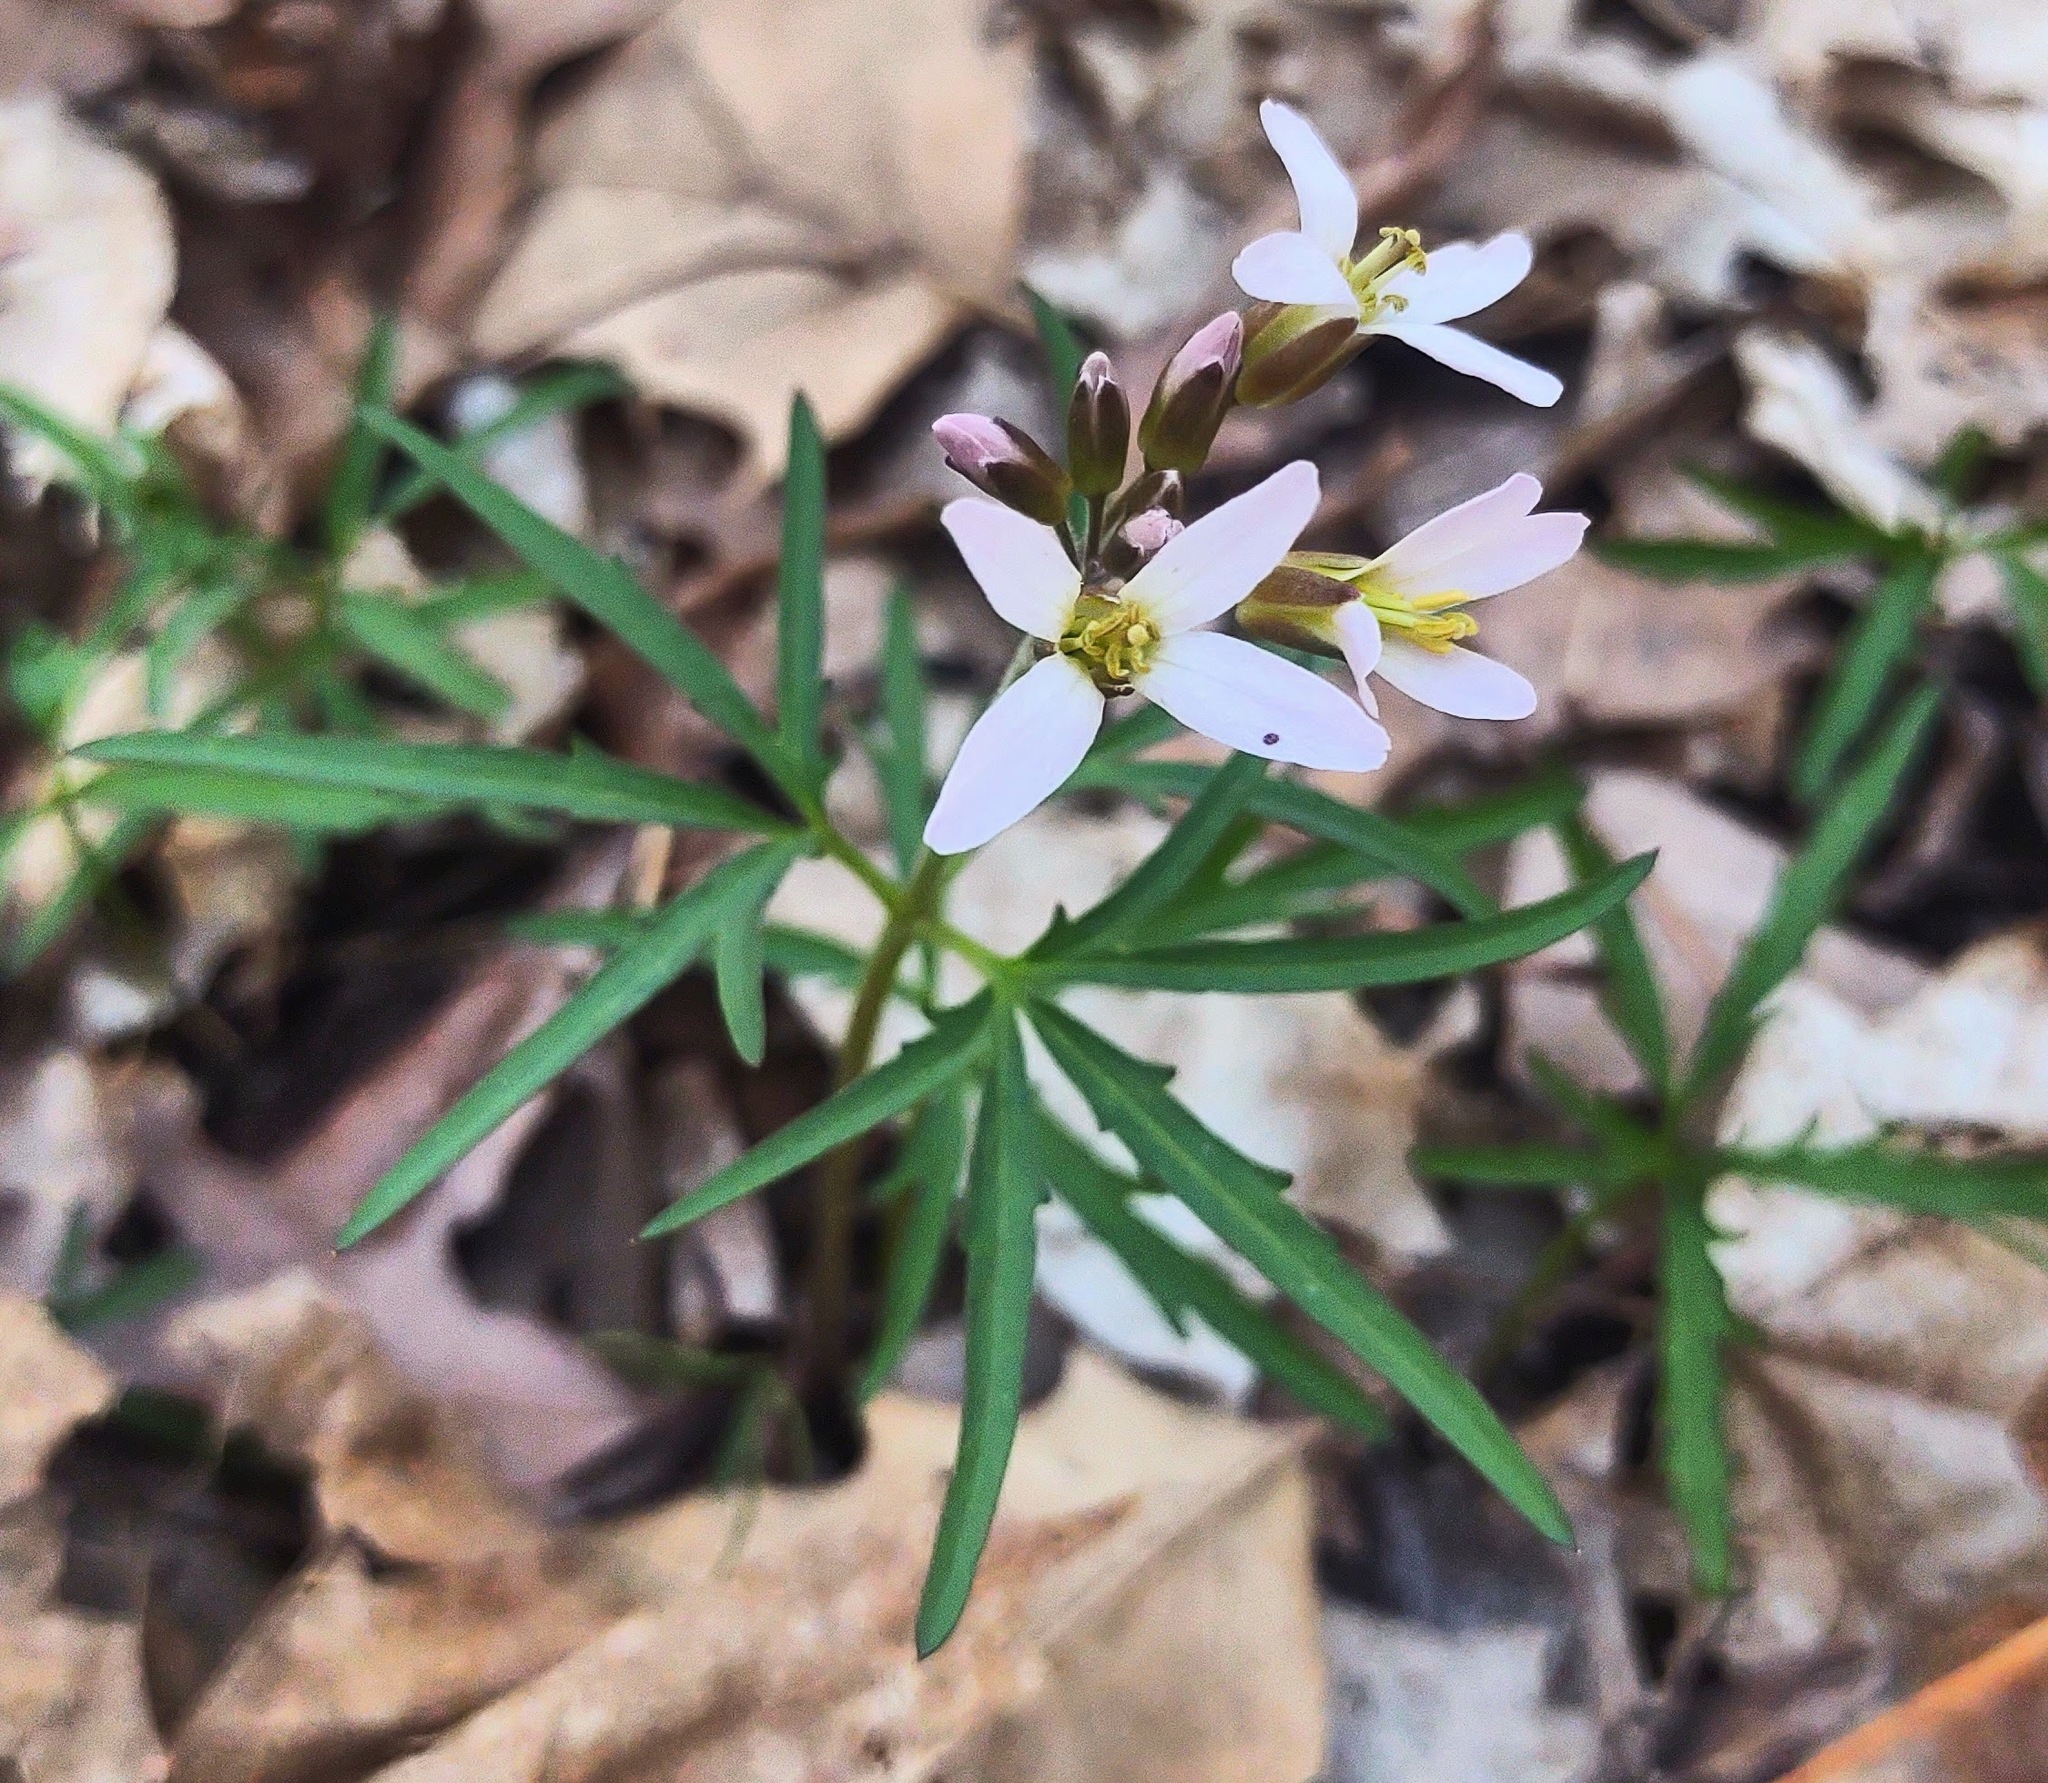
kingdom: Plantae
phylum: Tracheophyta
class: Magnoliopsida
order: Brassicales
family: Brassicaceae
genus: Cardamine
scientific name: Cardamine concatenata
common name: Cut-leaf toothcup
